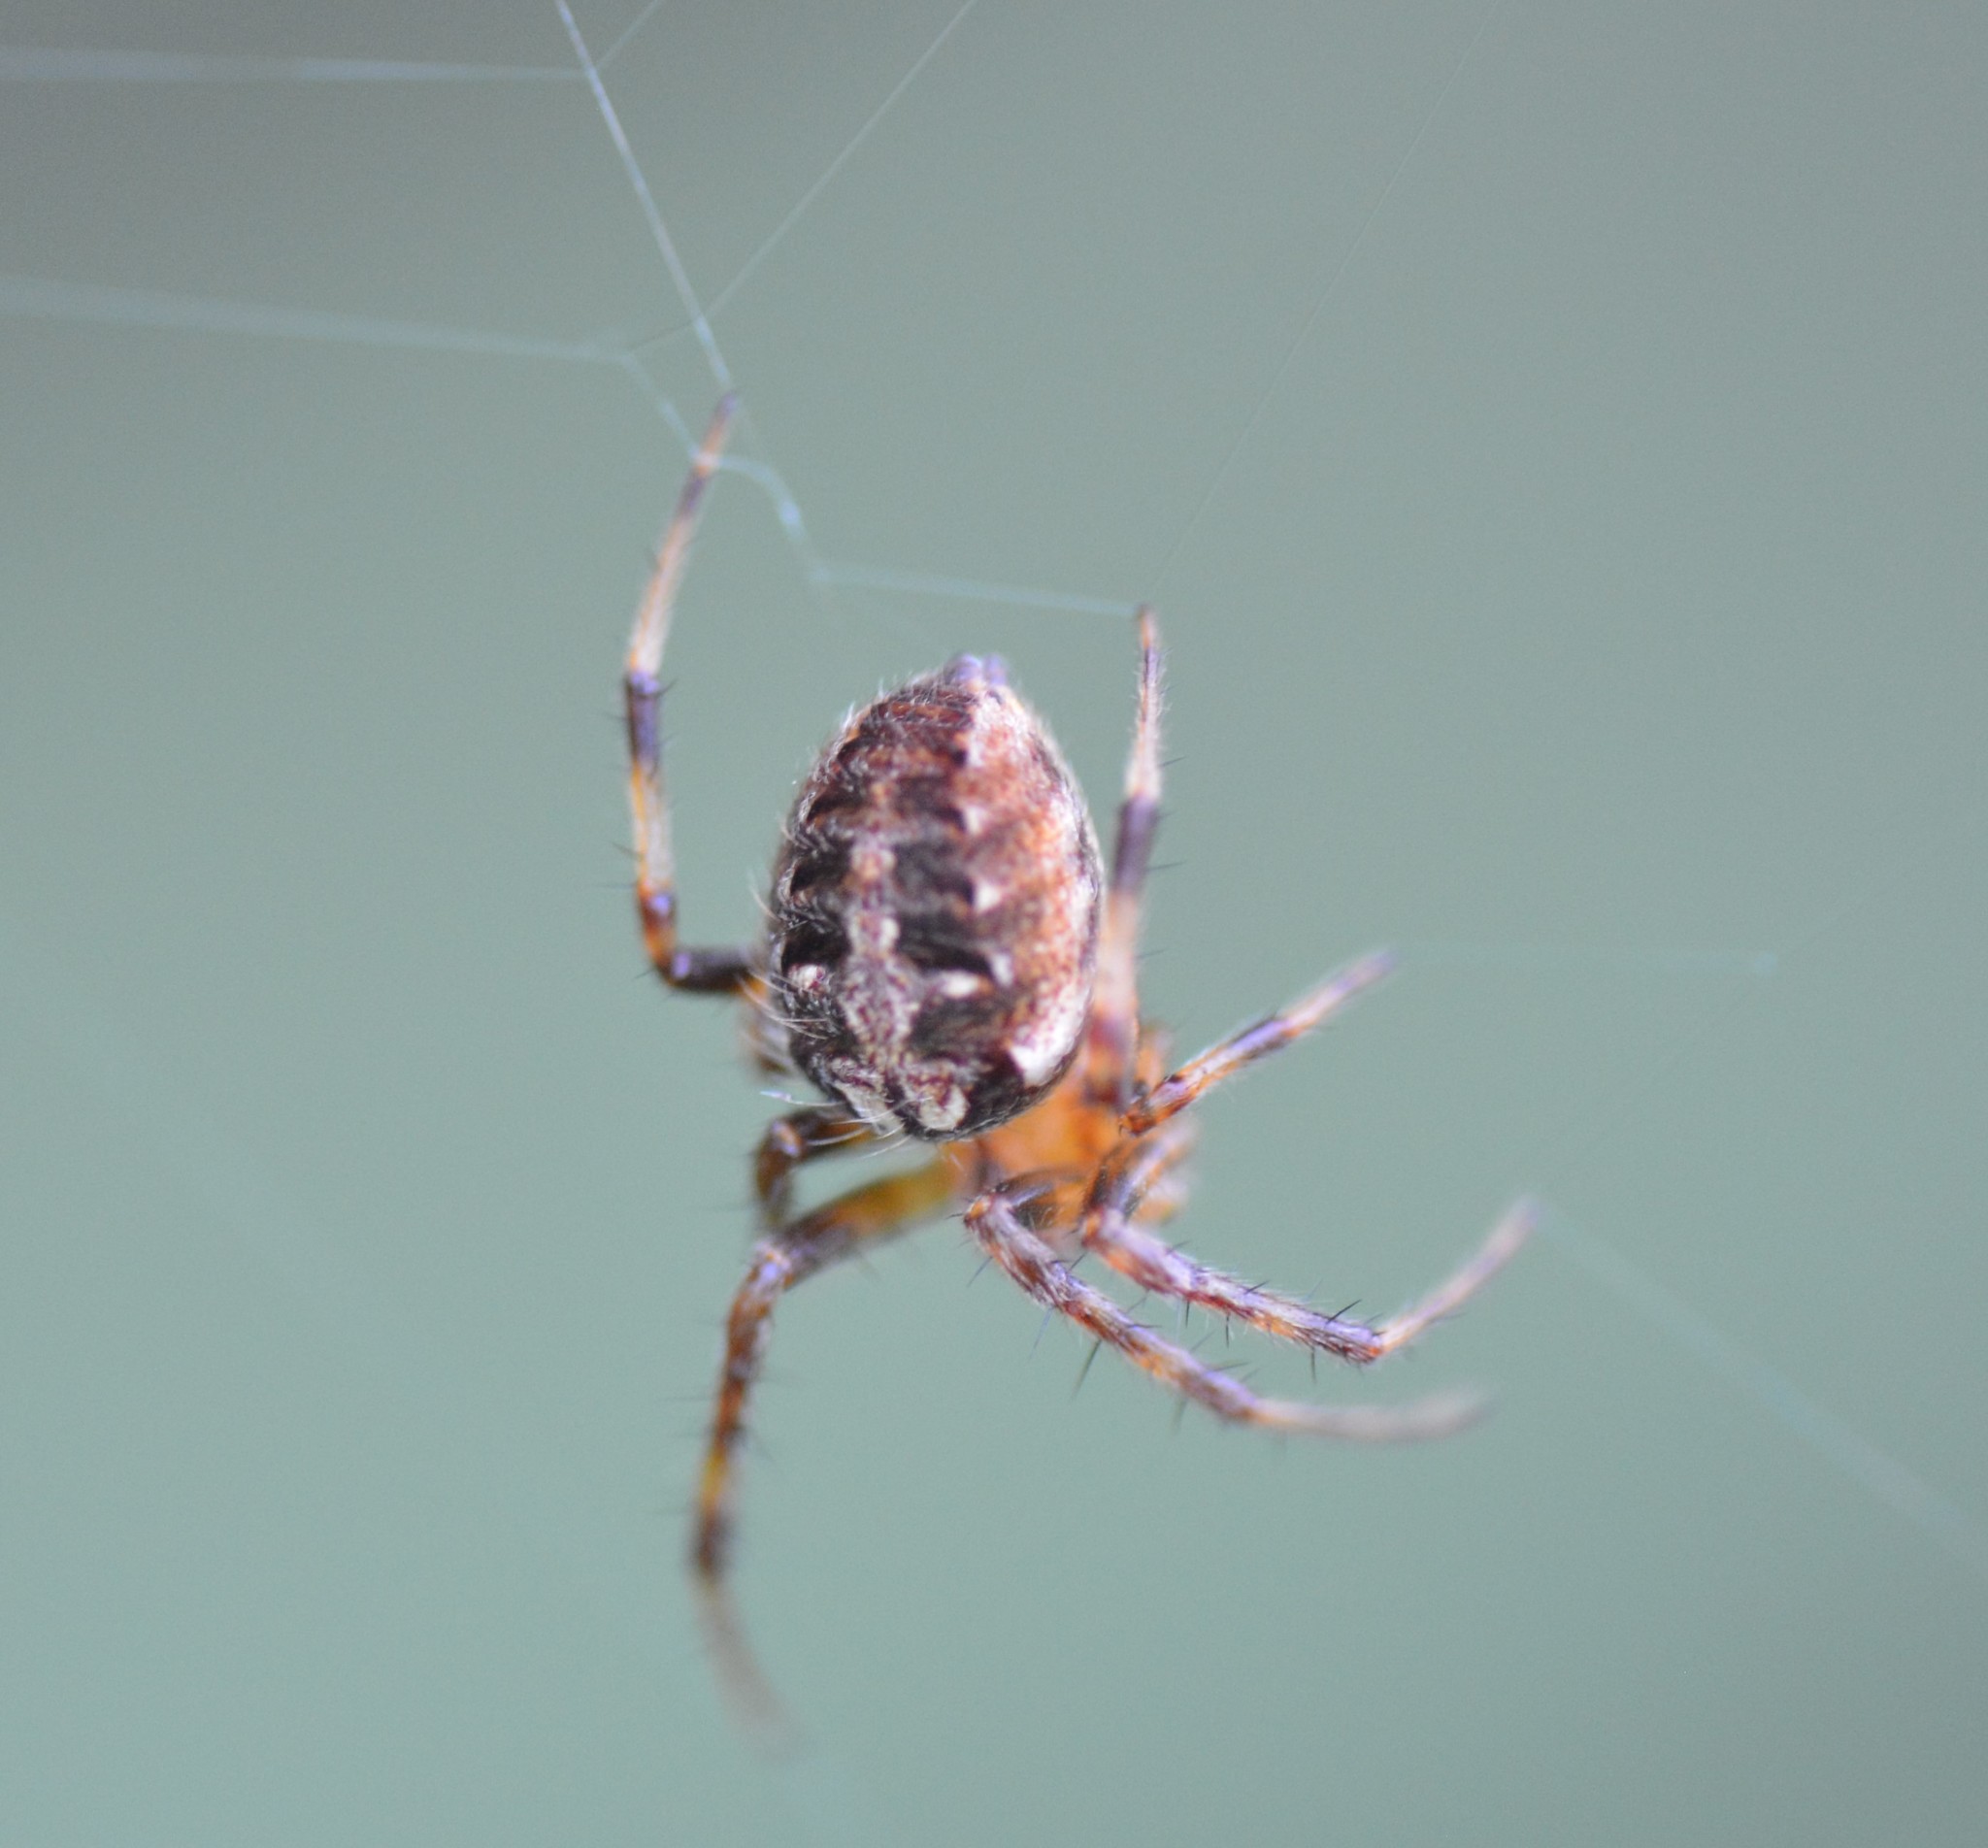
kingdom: Animalia
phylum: Arthropoda
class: Arachnida
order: Araneae
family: Araneidae
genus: Neoscona
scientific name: Neoscona arabesca
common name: Orb weavers
